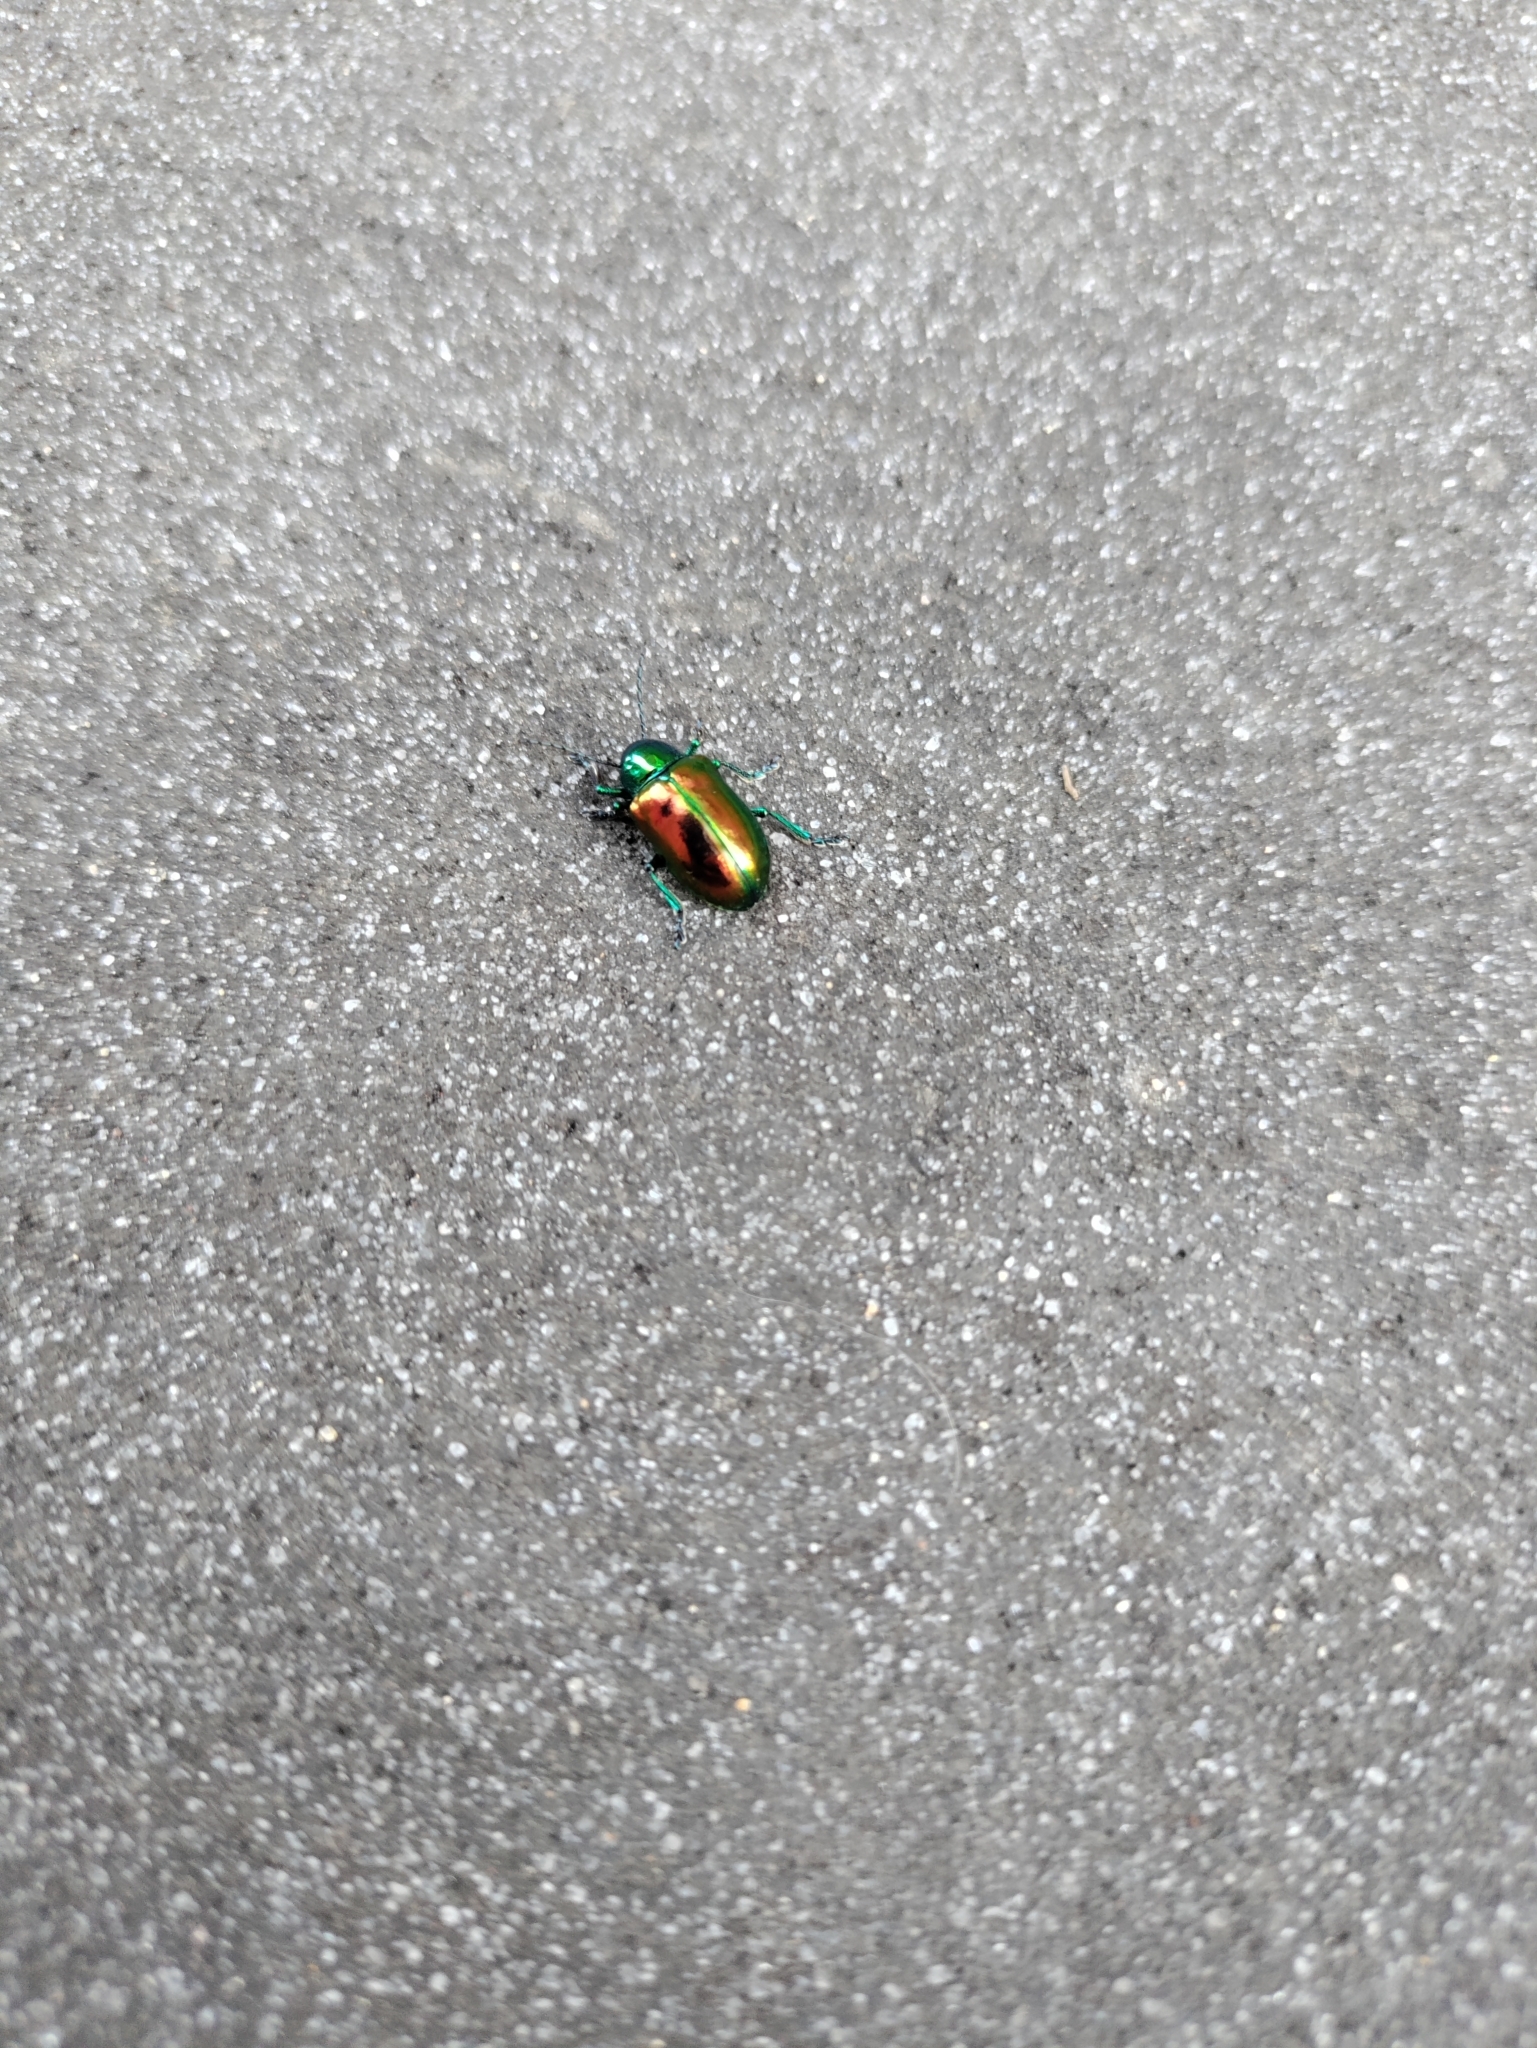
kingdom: Animalia
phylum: Arthropoda
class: Insecta
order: Coleoptera
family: Chrysomelidae
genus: Chrysochus
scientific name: Chrysochus auratus
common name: Dogbane leaf beetle
